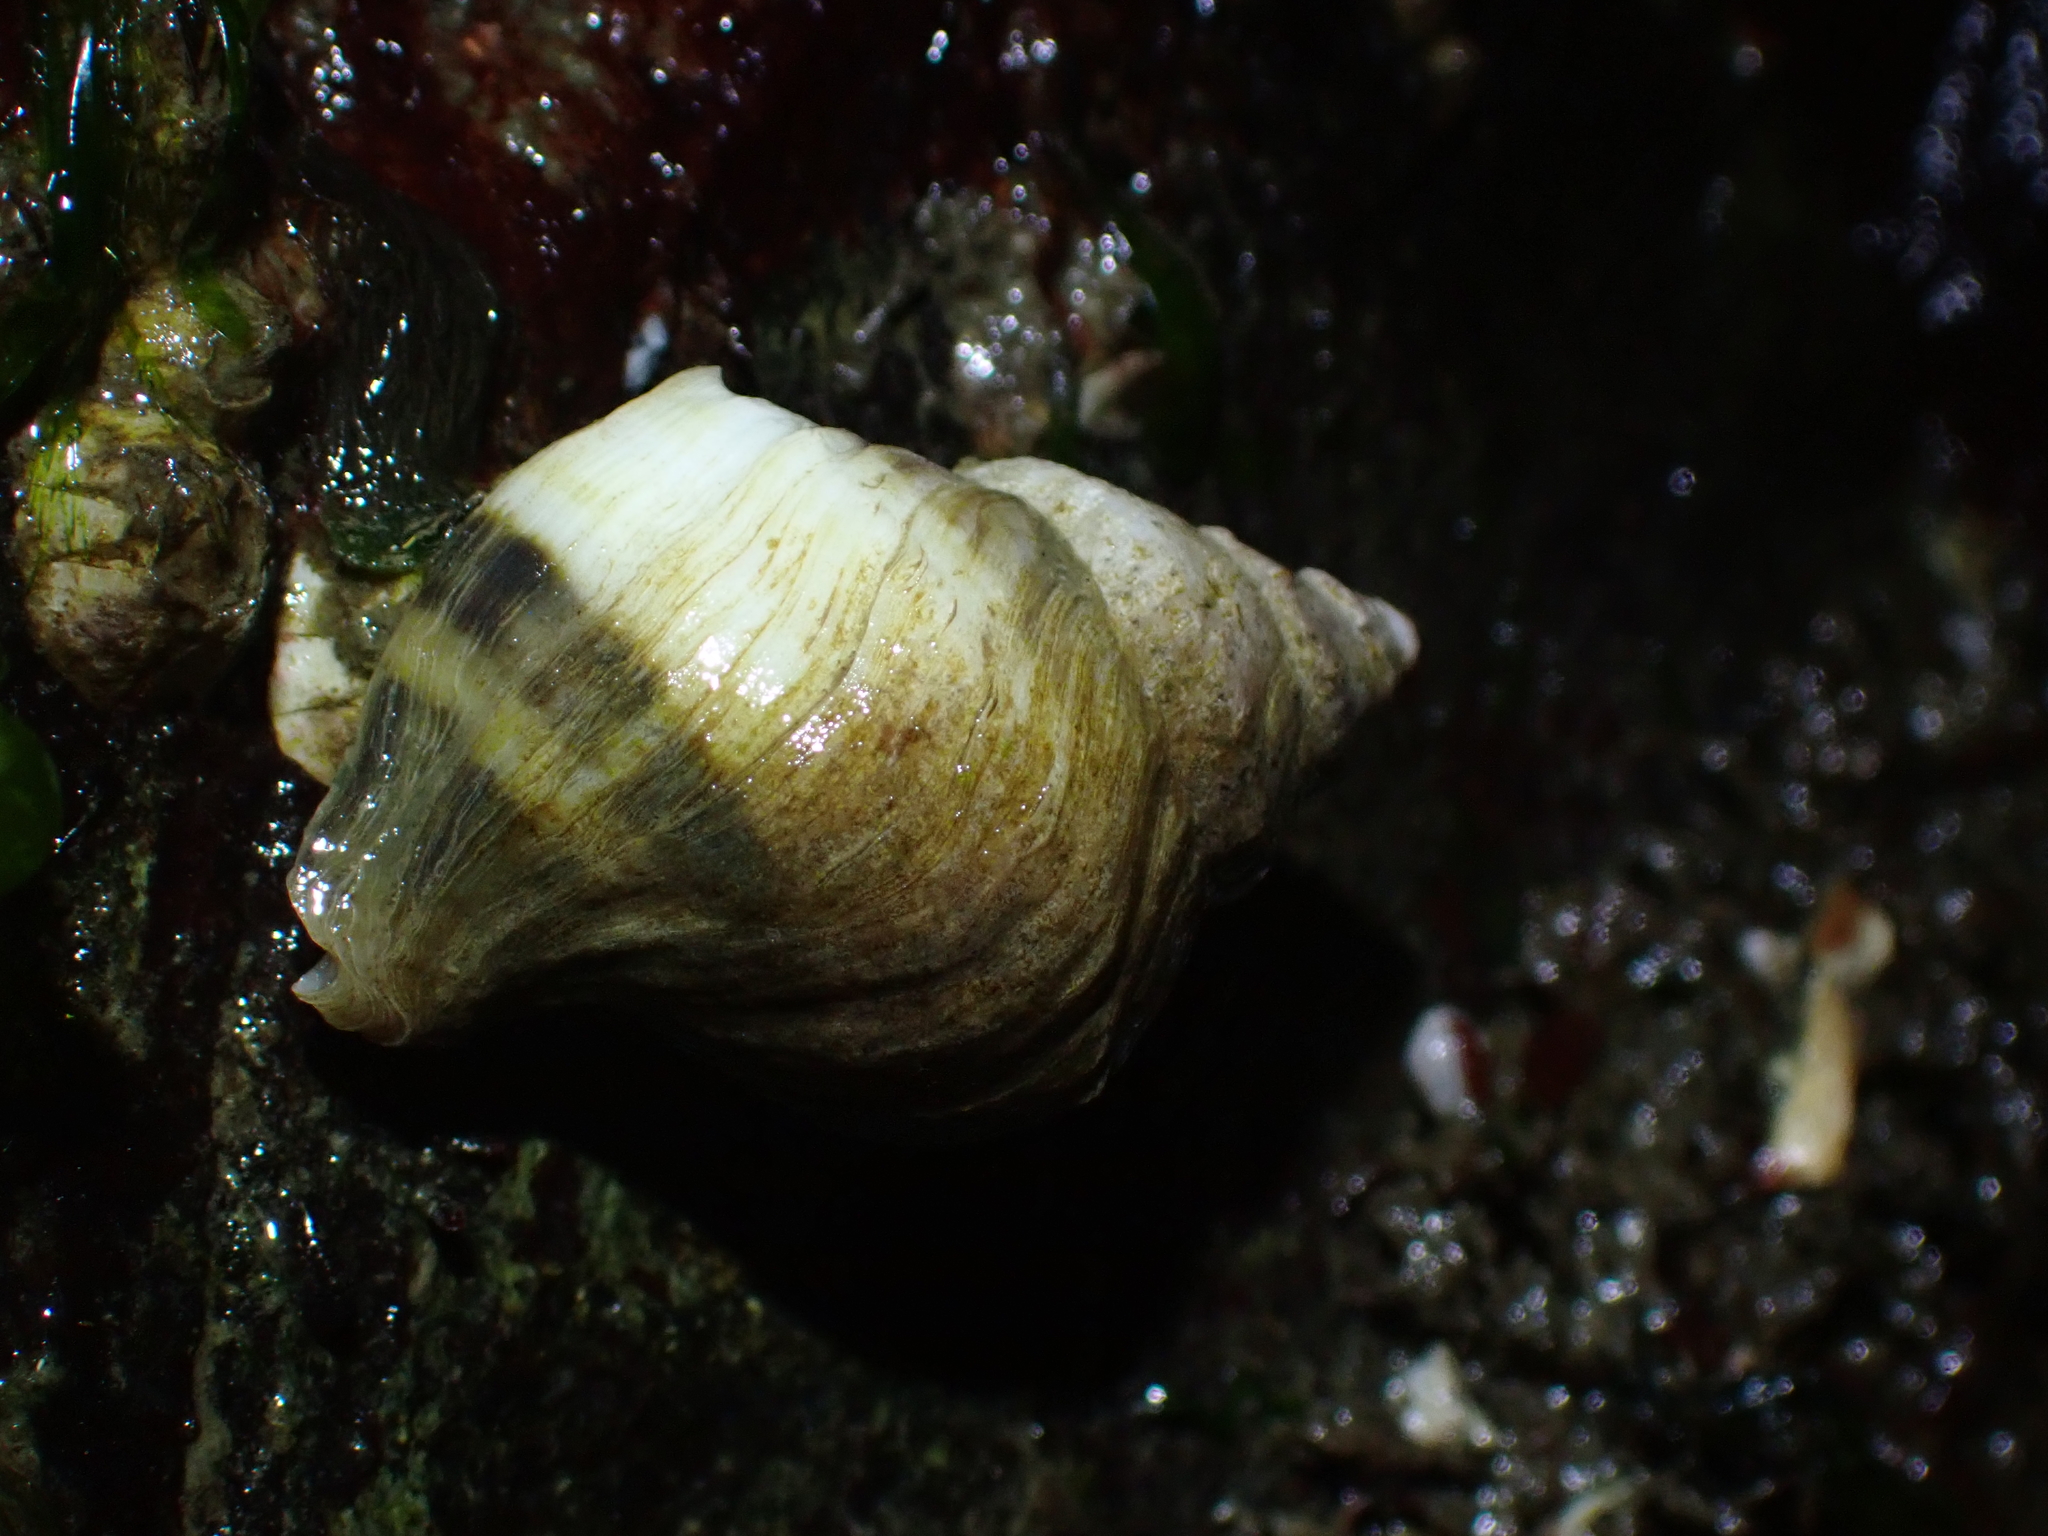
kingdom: Animalia
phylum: Mollusca
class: Gastropoda
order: Neogastropoda
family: Muricidae
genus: Nucella
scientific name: Nucella lamellosa
